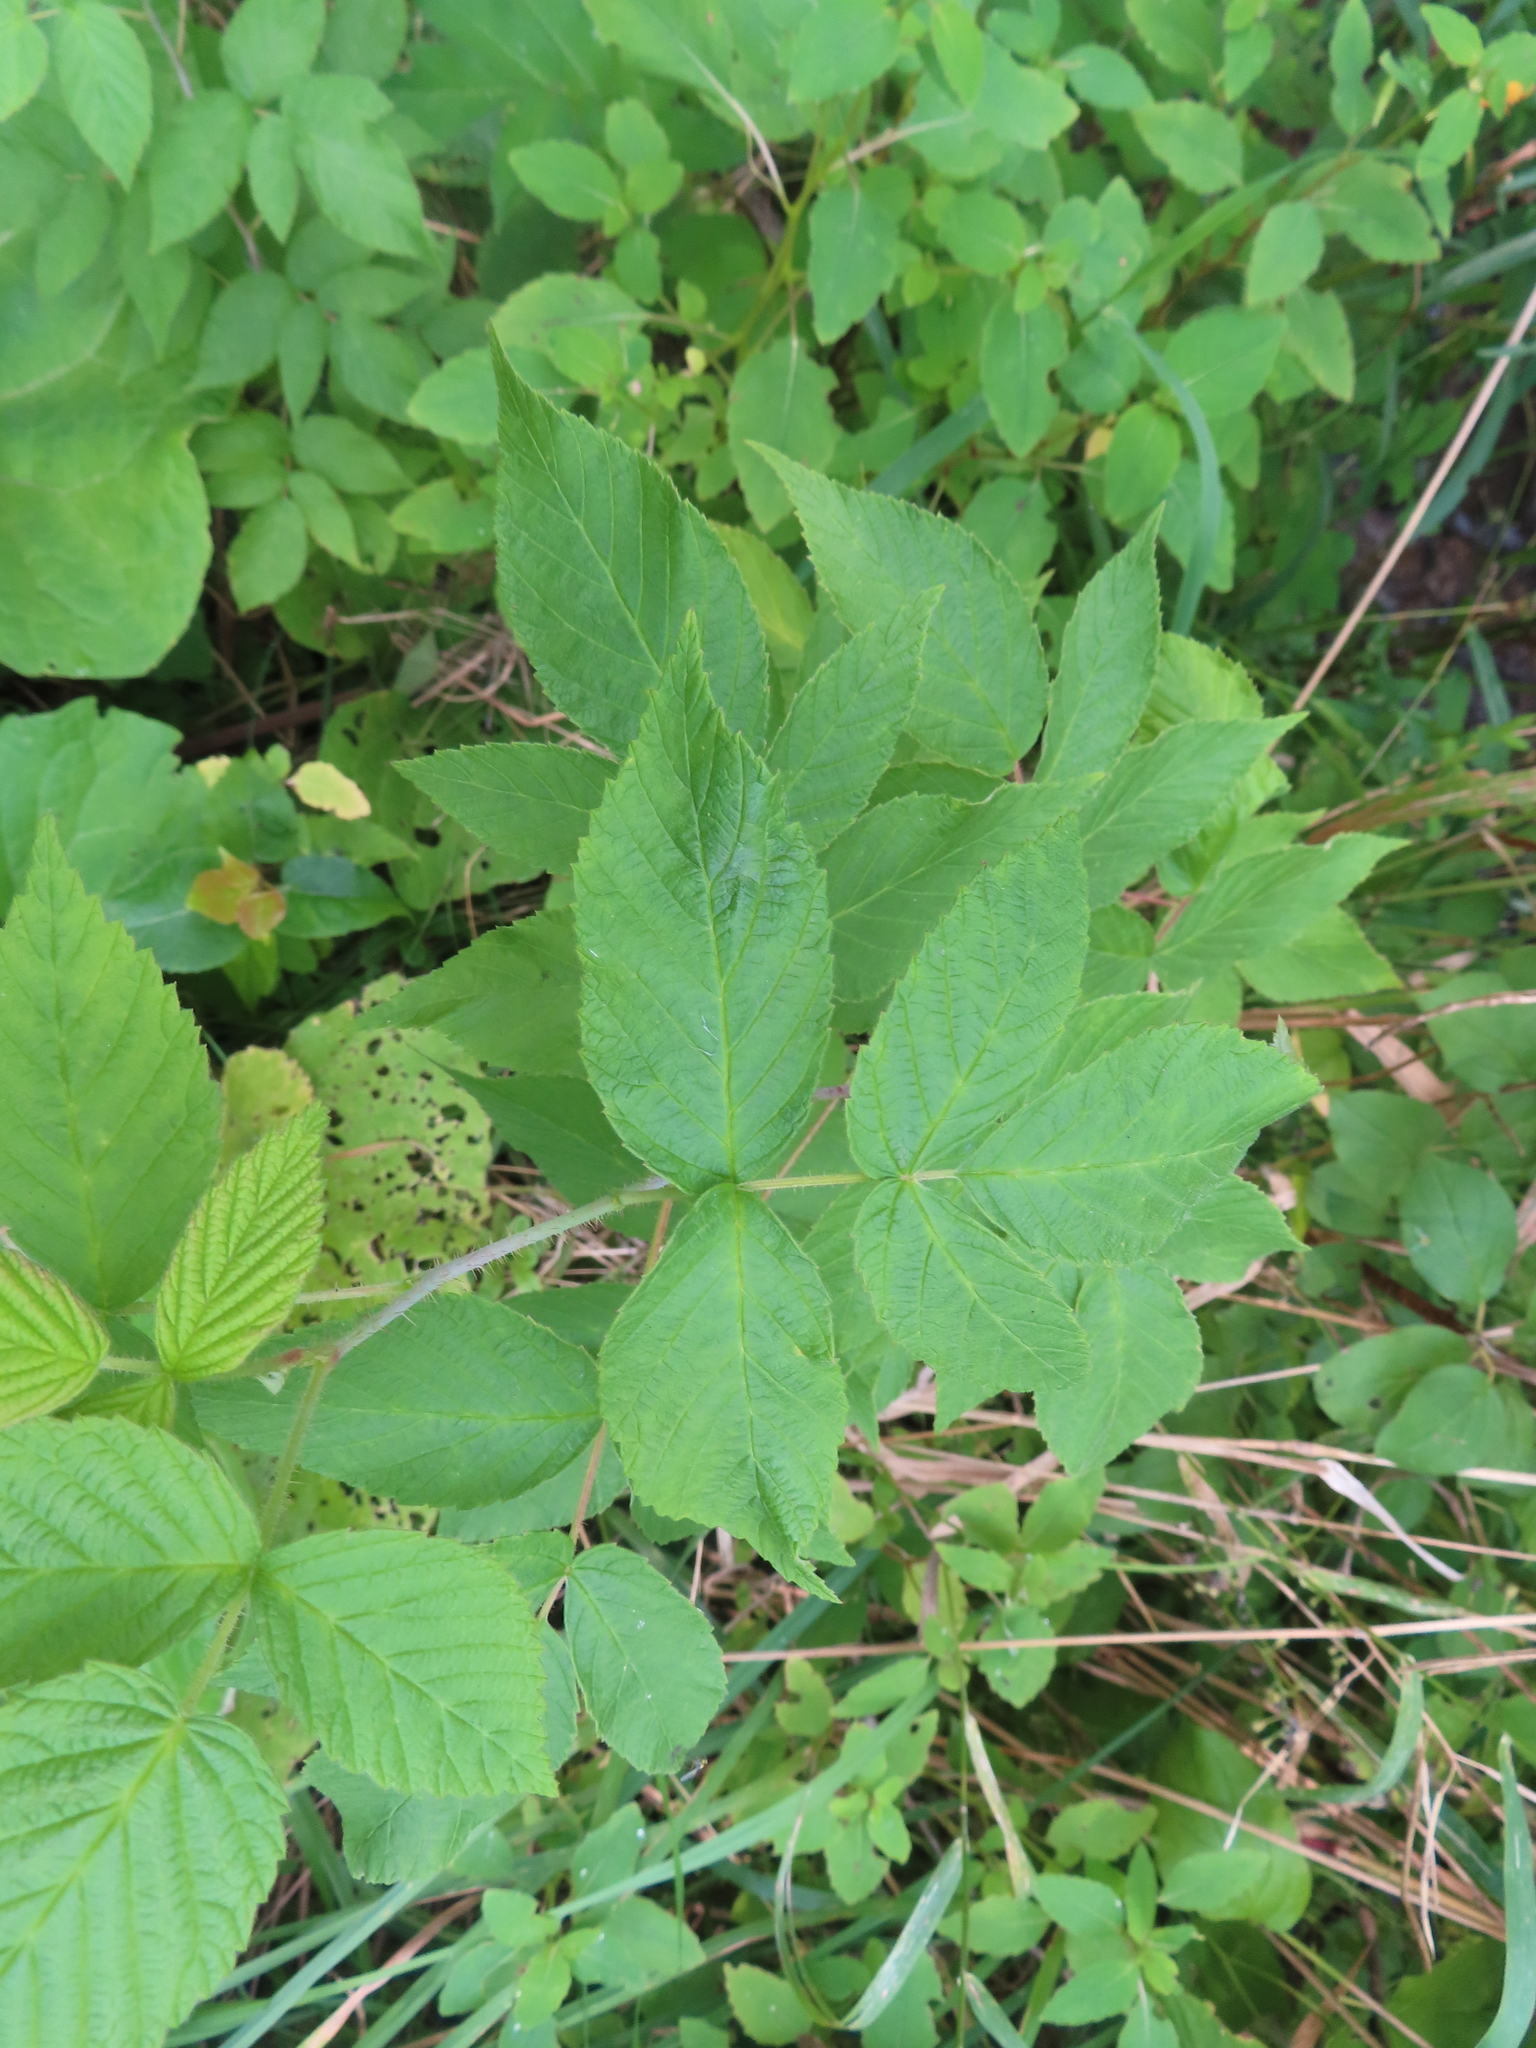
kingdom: Plantae
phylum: Tracheophyta
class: Magnoliopsida
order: Rosales
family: Rosaceae
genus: Rubus
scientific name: Rubus idaeus
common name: Raspberry
